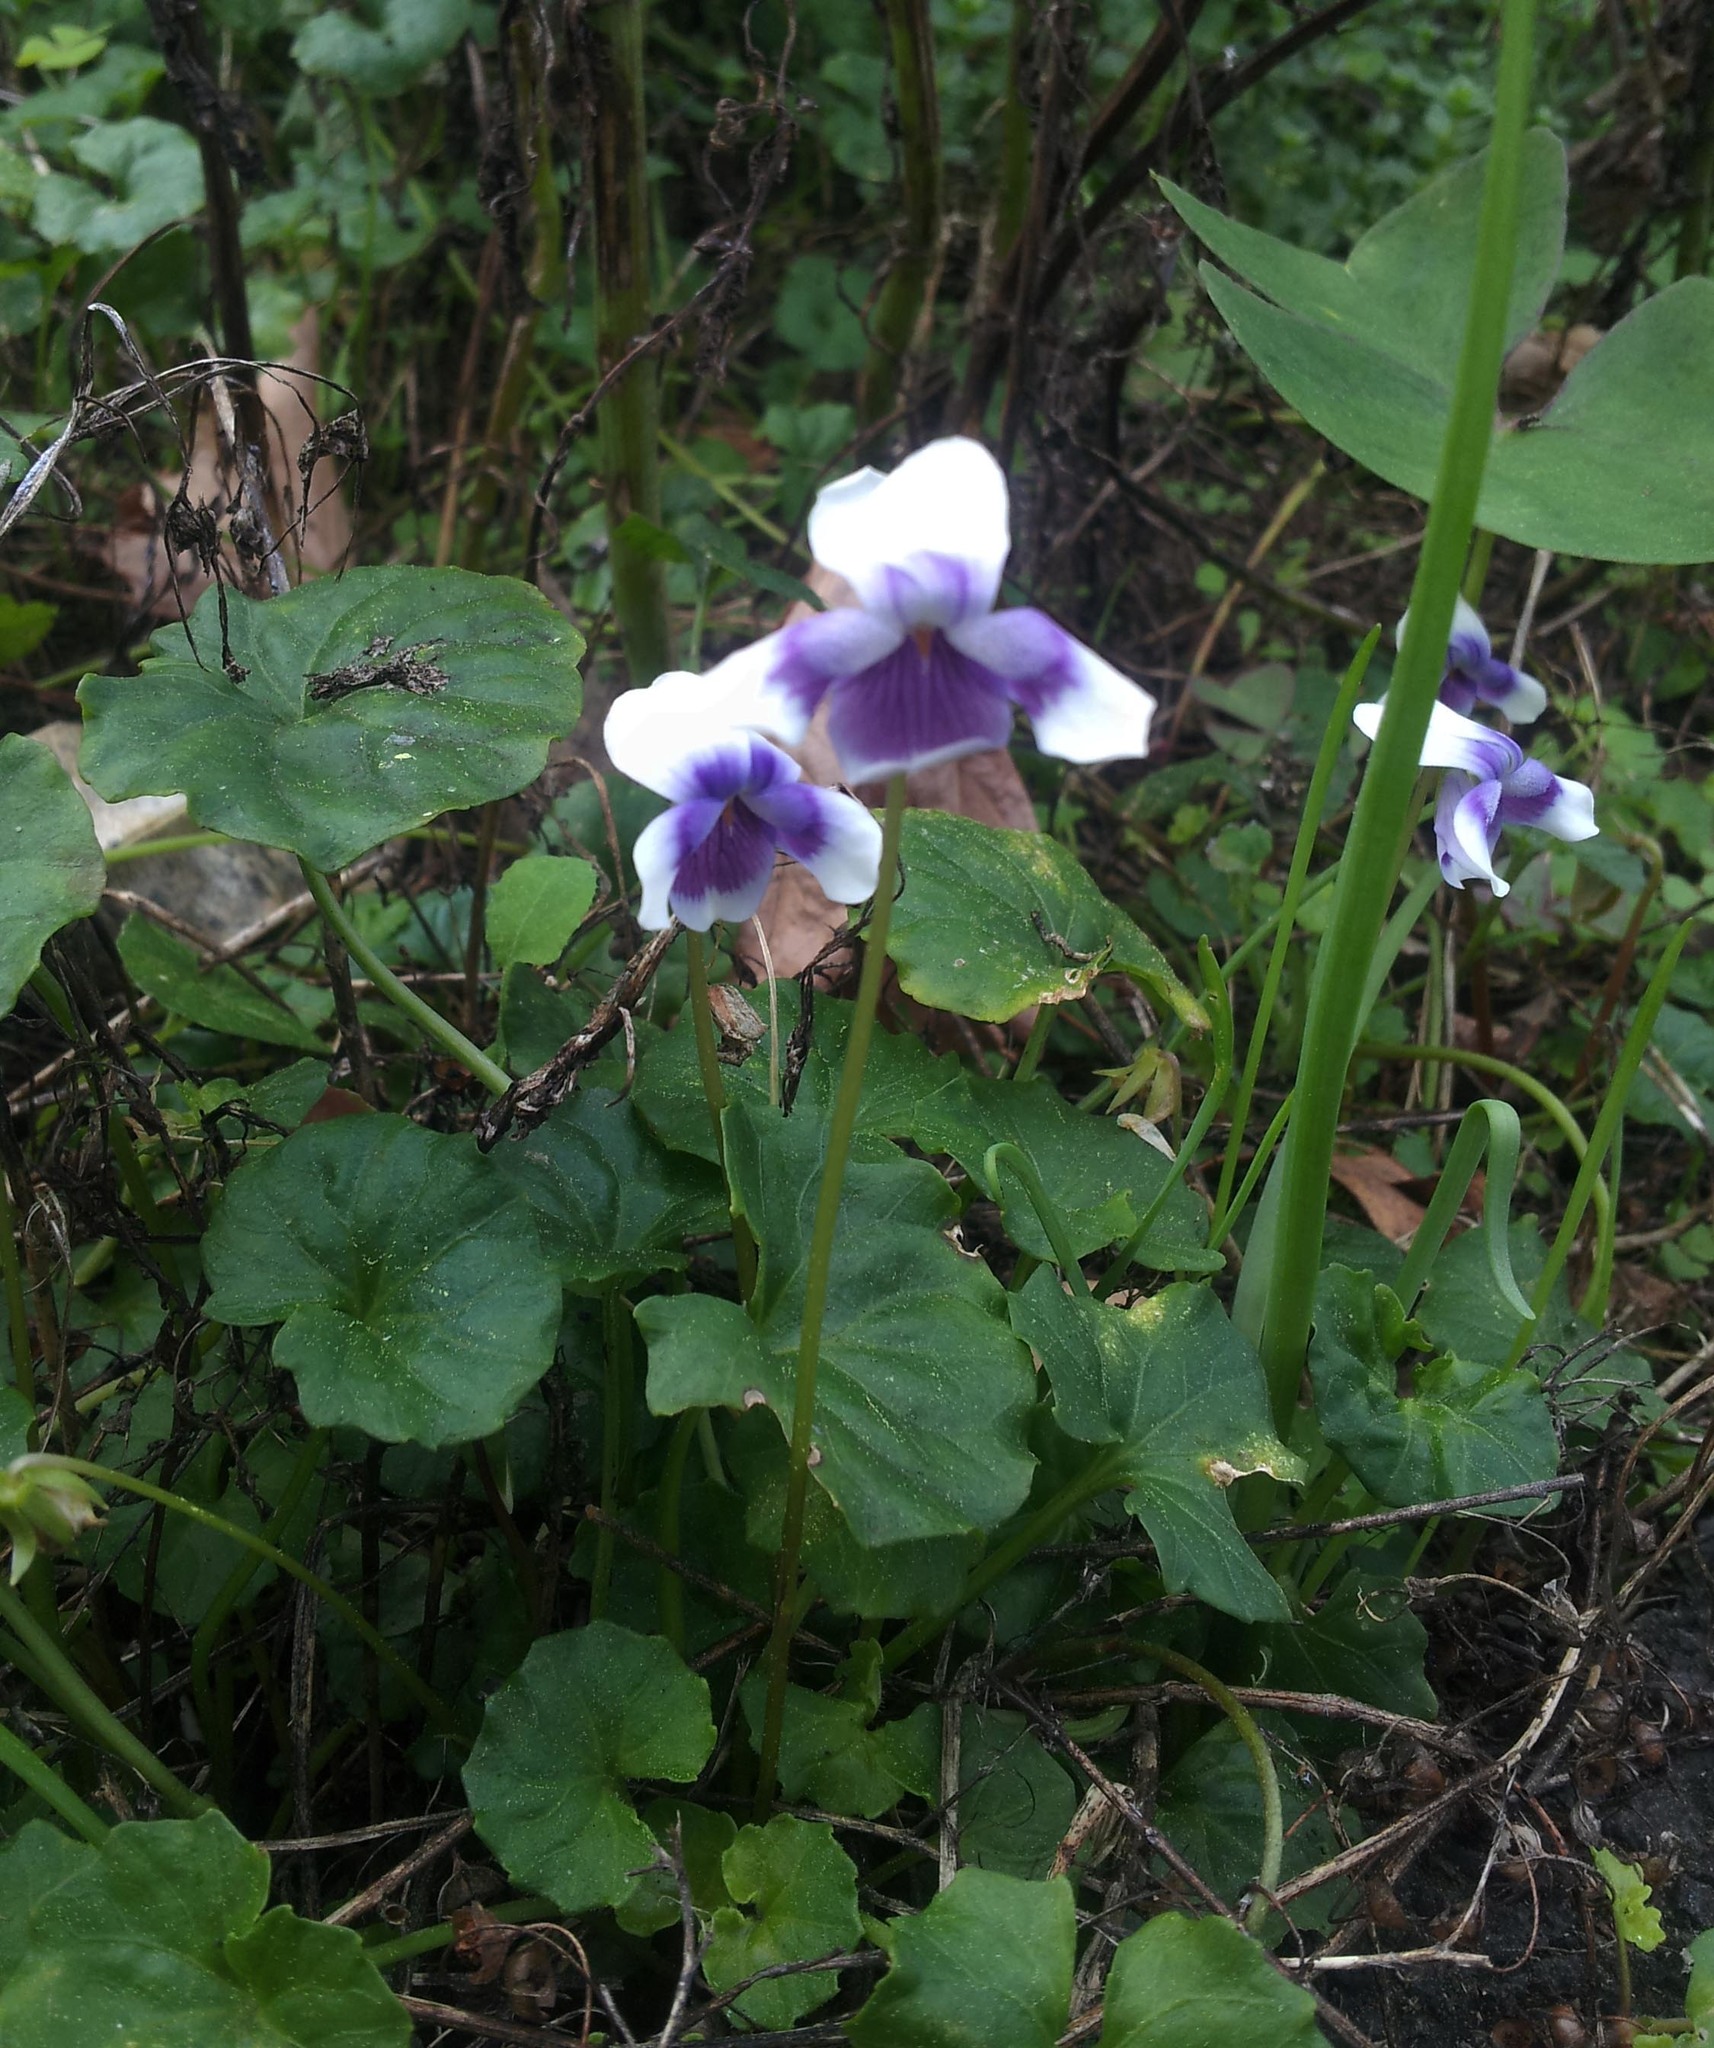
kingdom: Plantae
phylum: Tracheophyta
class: Magnoliopsida
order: Malpighiales
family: Violaceae
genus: Viola
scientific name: Viola banksii
